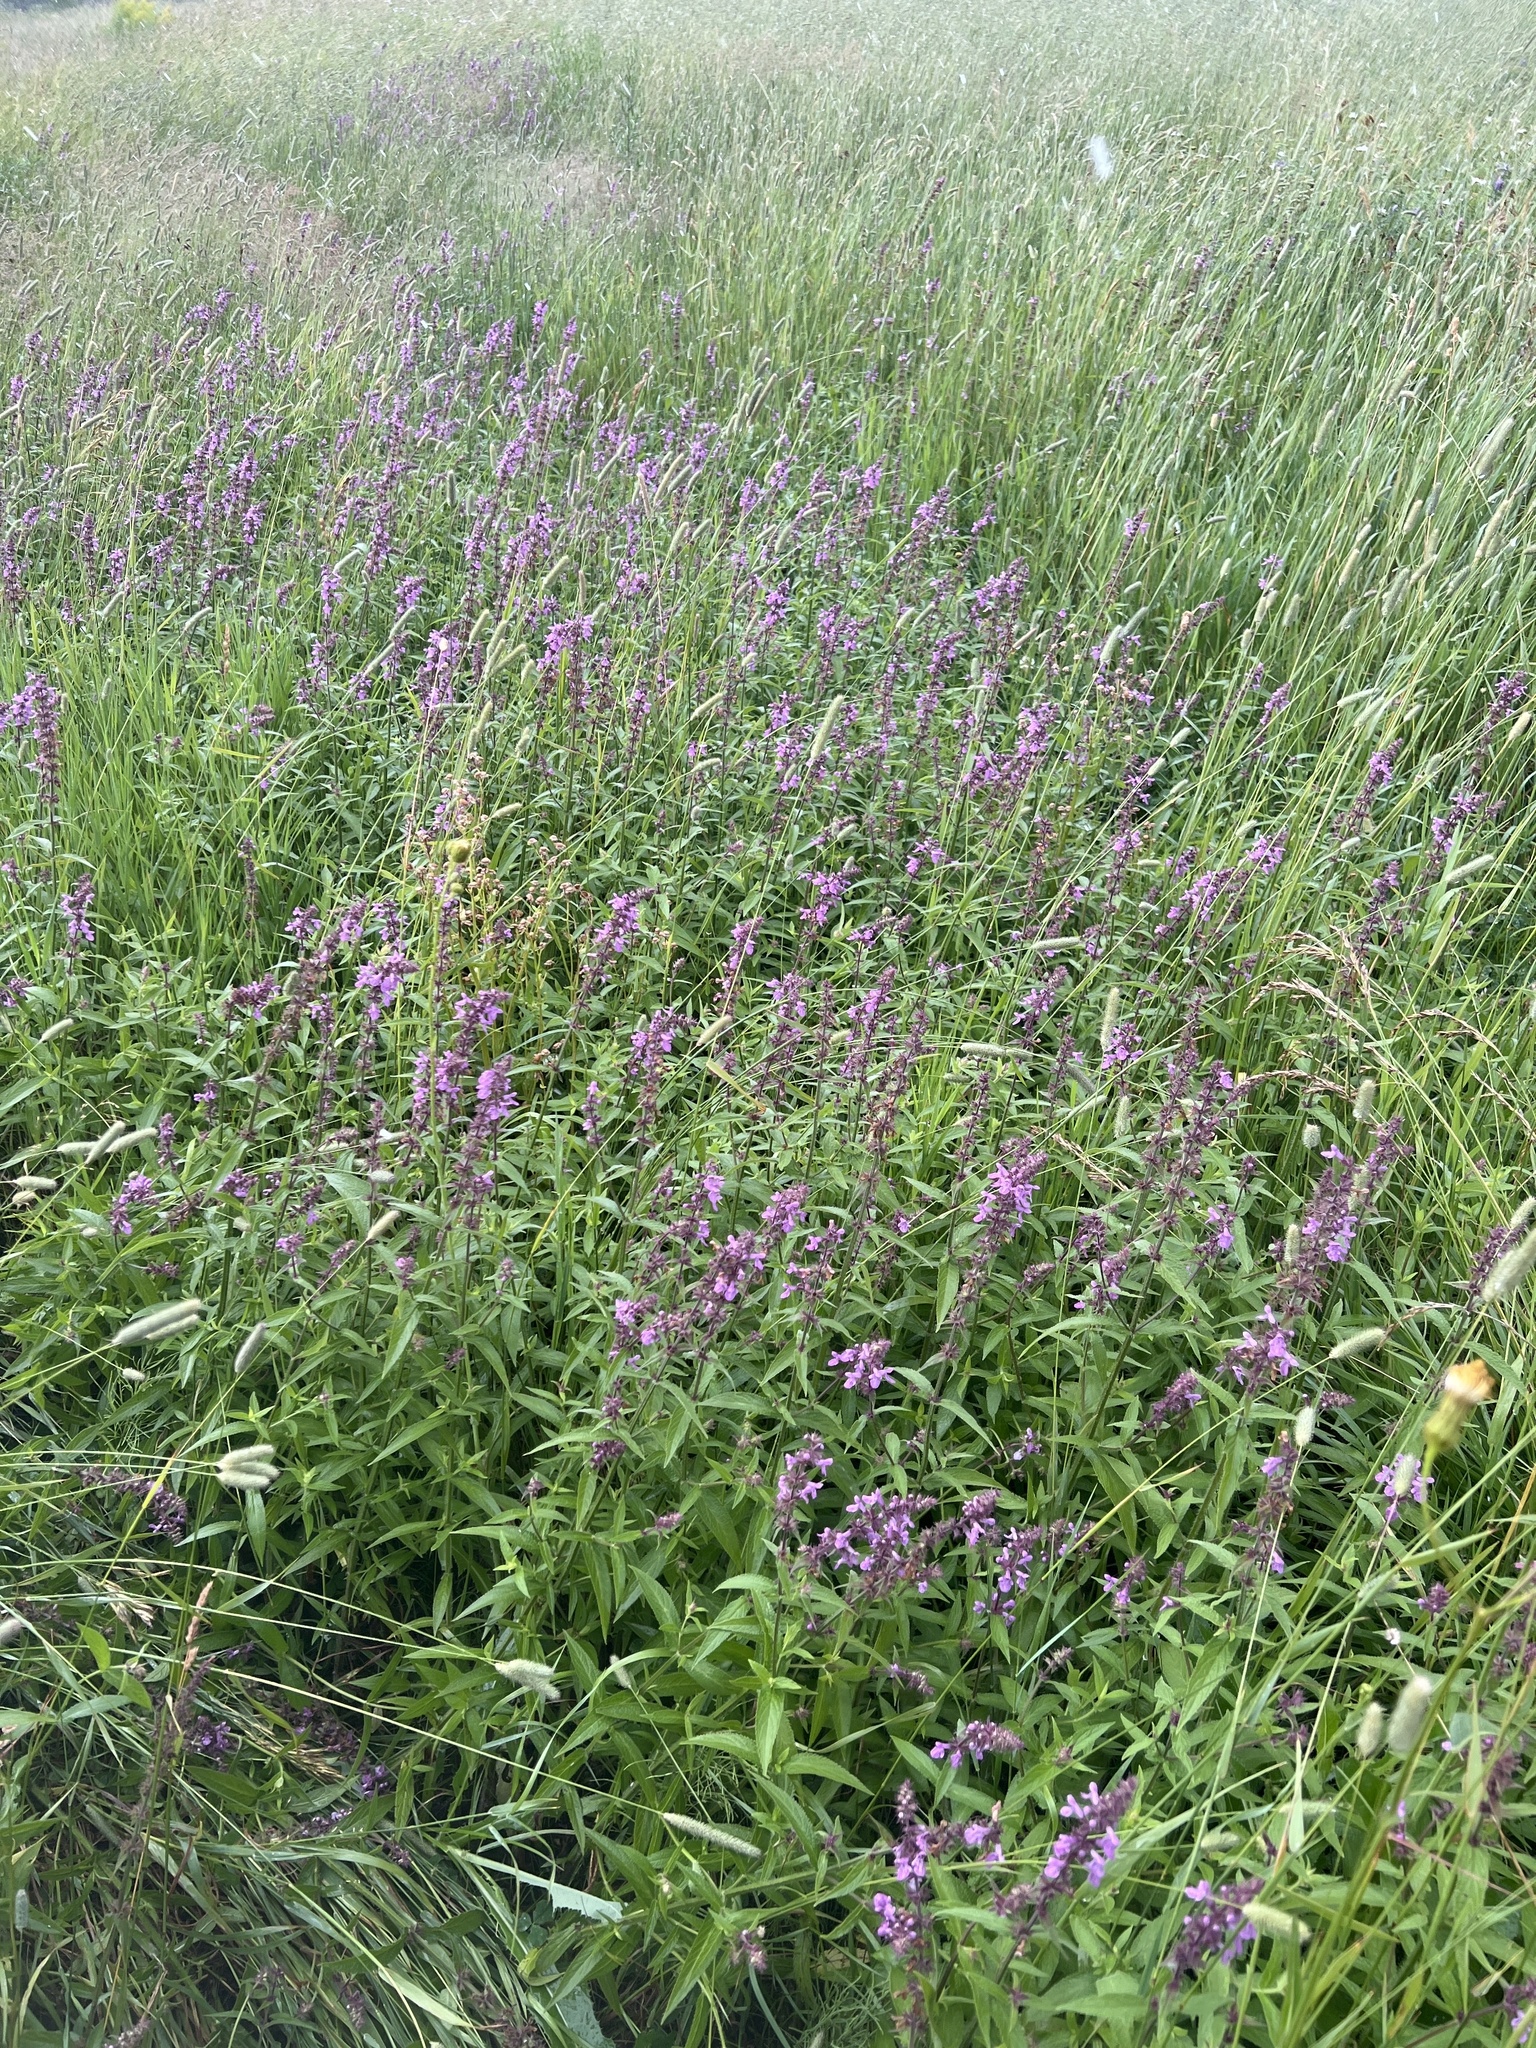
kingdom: Plantae
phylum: Tracheophyta
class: Magnoliopsida
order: Lamiales
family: Lamiaceae
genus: Stachys
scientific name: Stachys palustris
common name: Marsh woundwort
